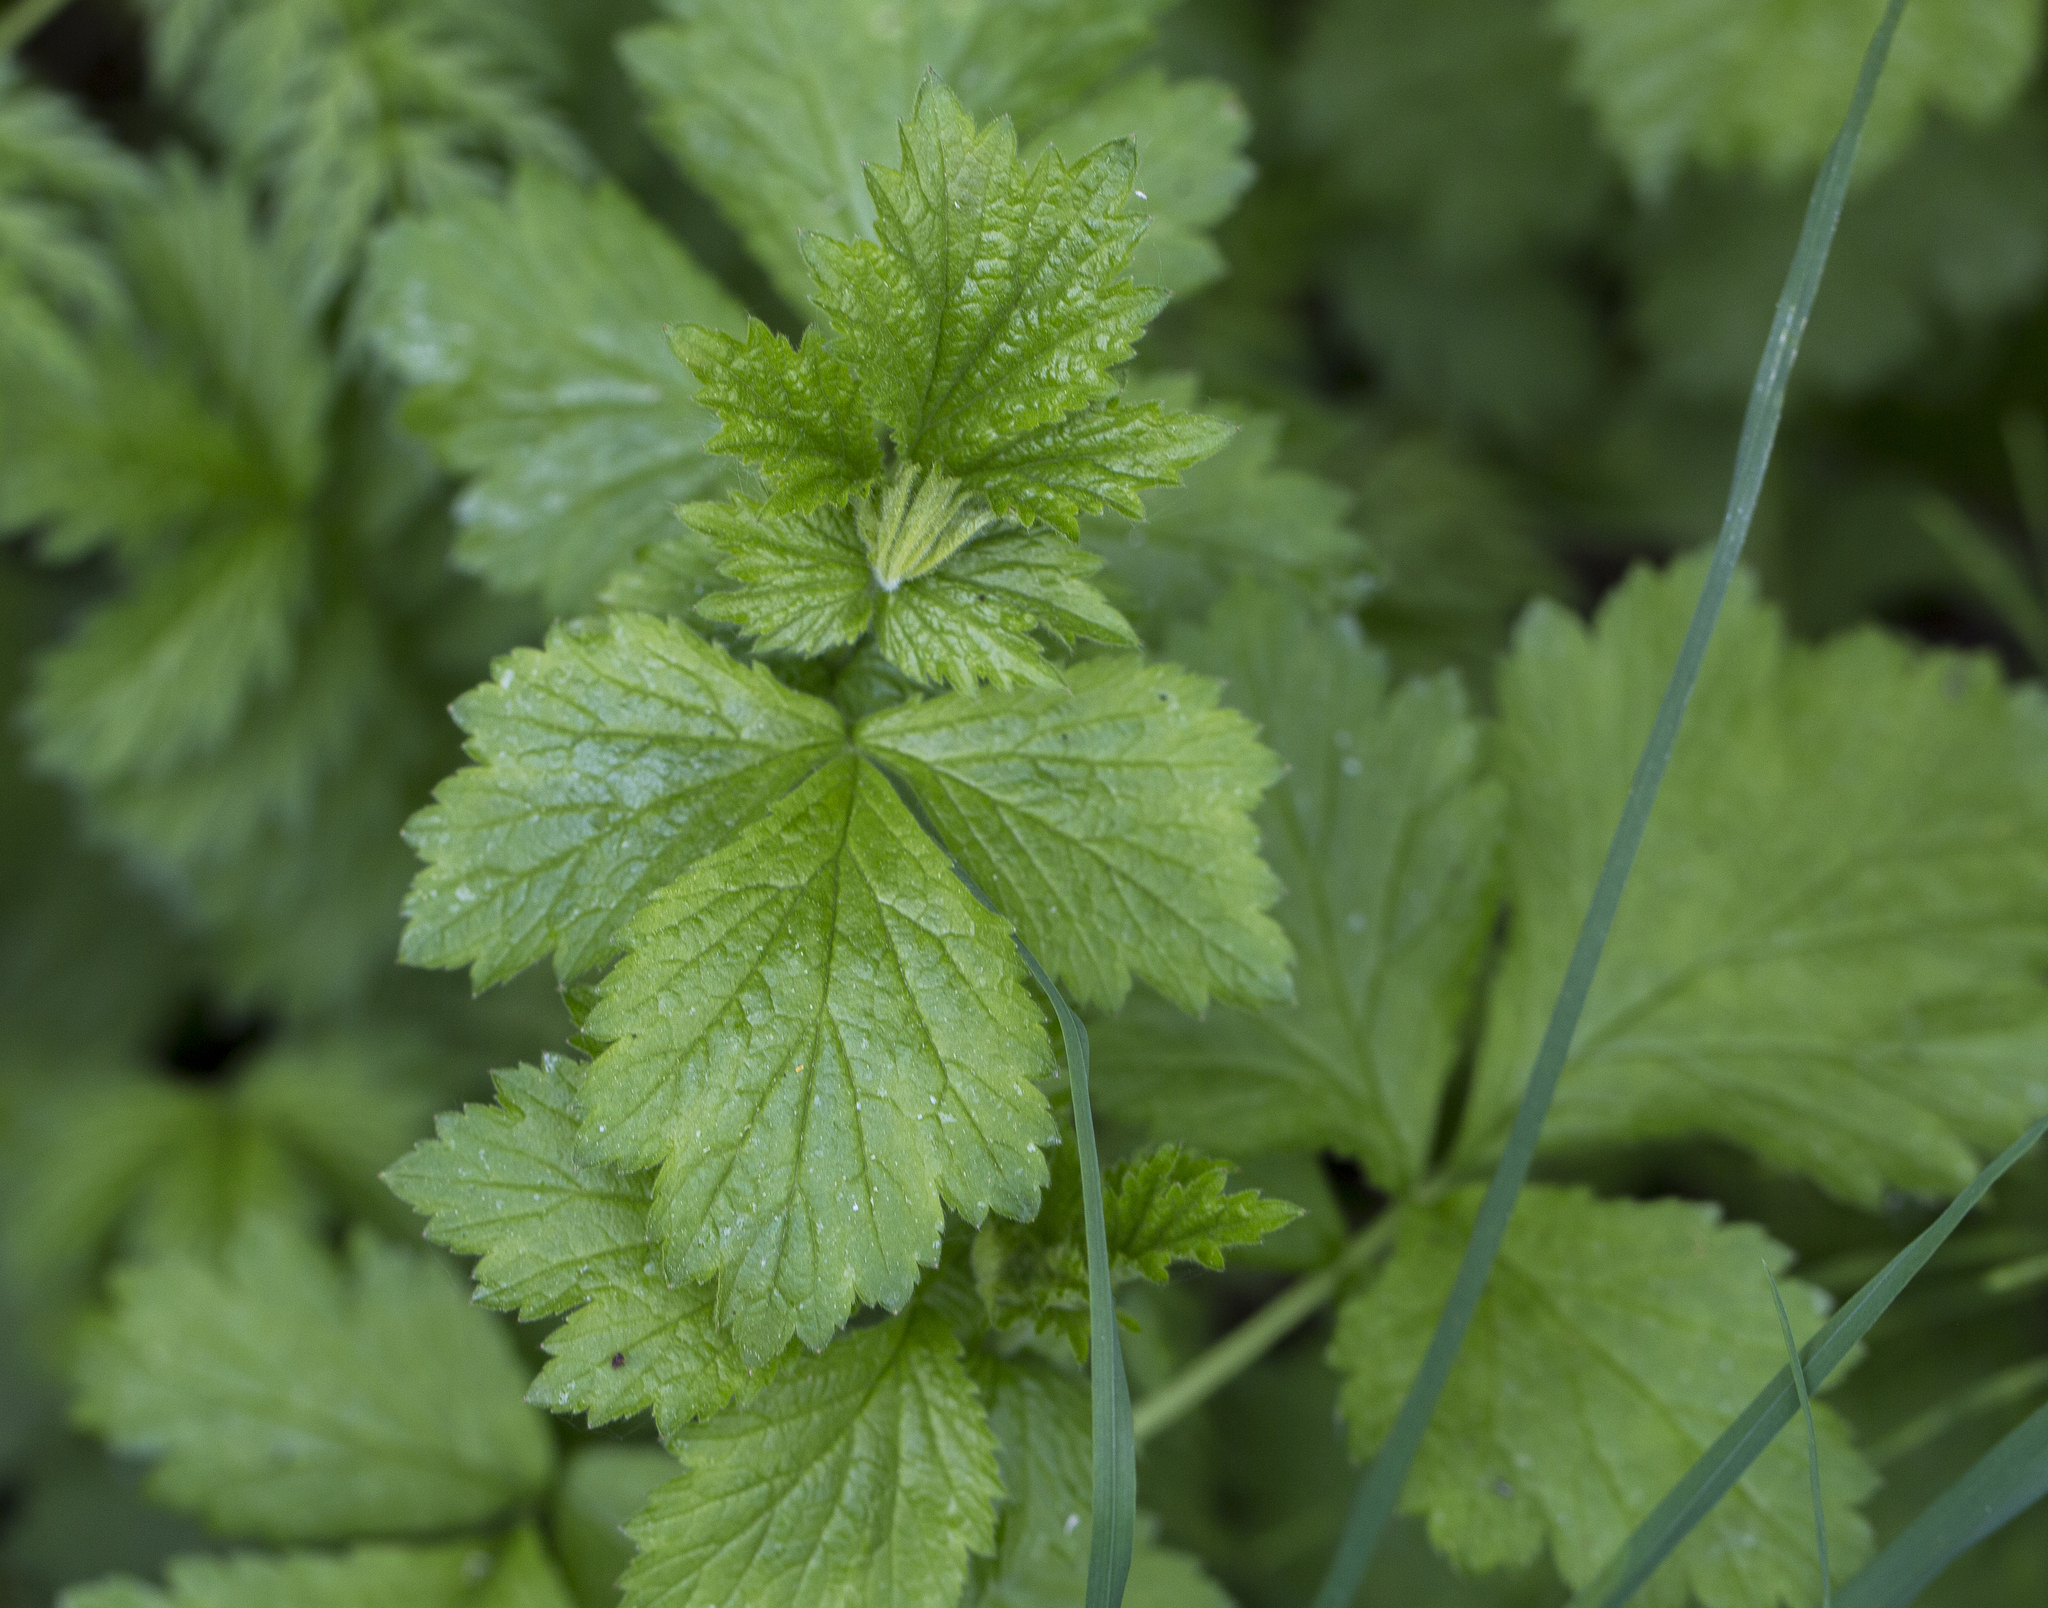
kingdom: Plantae
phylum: Tracheophyta
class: Magnoliopsida
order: Rosales
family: Rosaceae
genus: Geum
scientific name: Geum urbanum
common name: Wood avens
